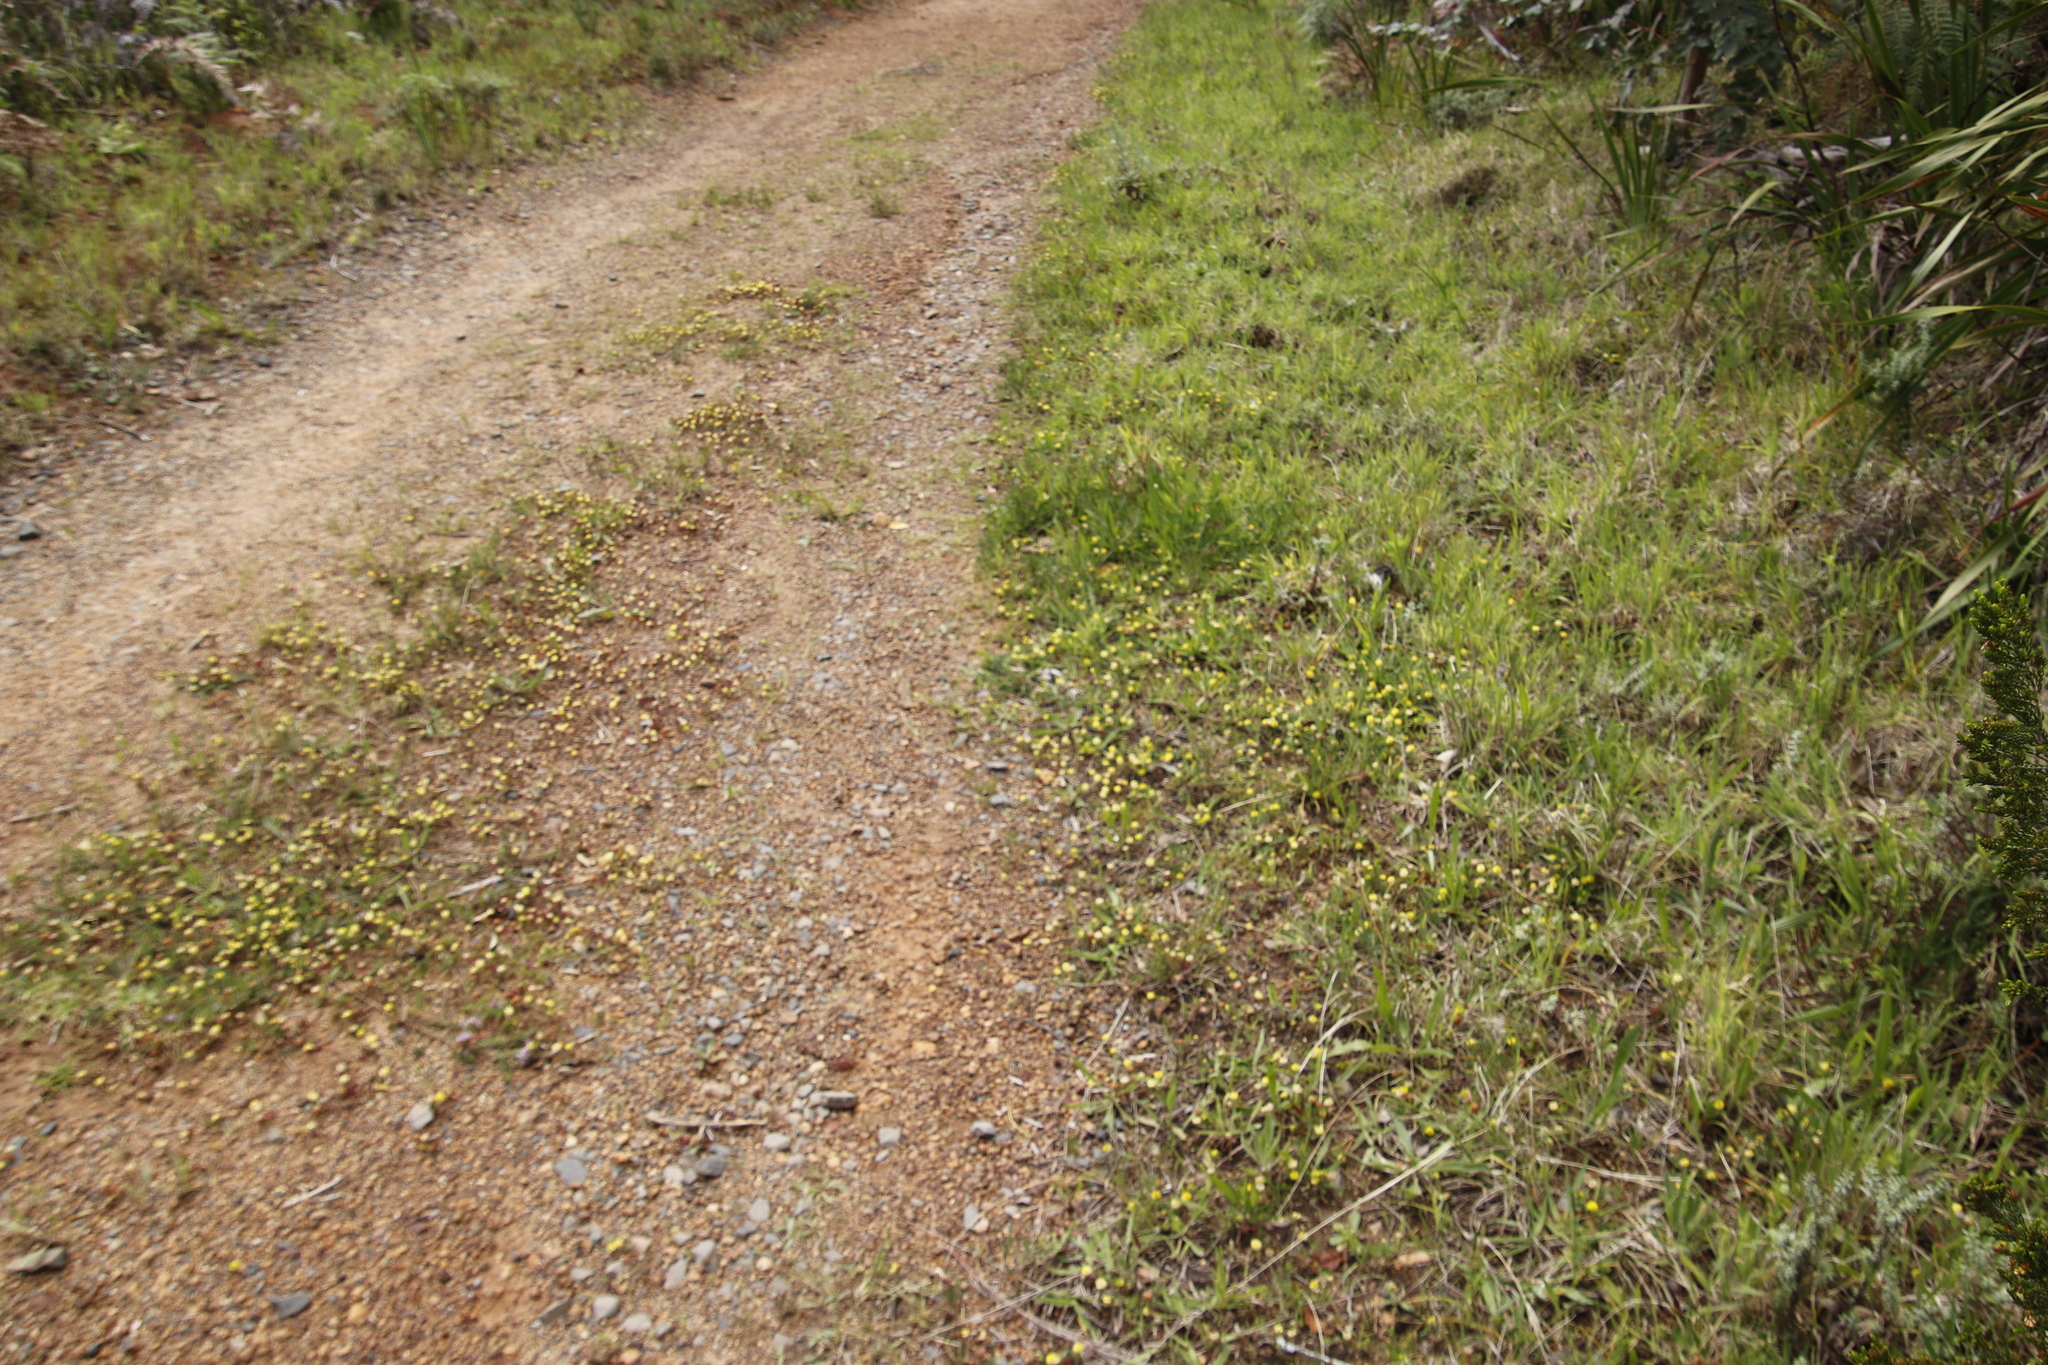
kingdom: Plantae
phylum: Tracheophyta
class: Magnoliopsida
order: Fabales
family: Fabaceae
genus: Trifolium
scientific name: Trifolium campestre
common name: Field clover
